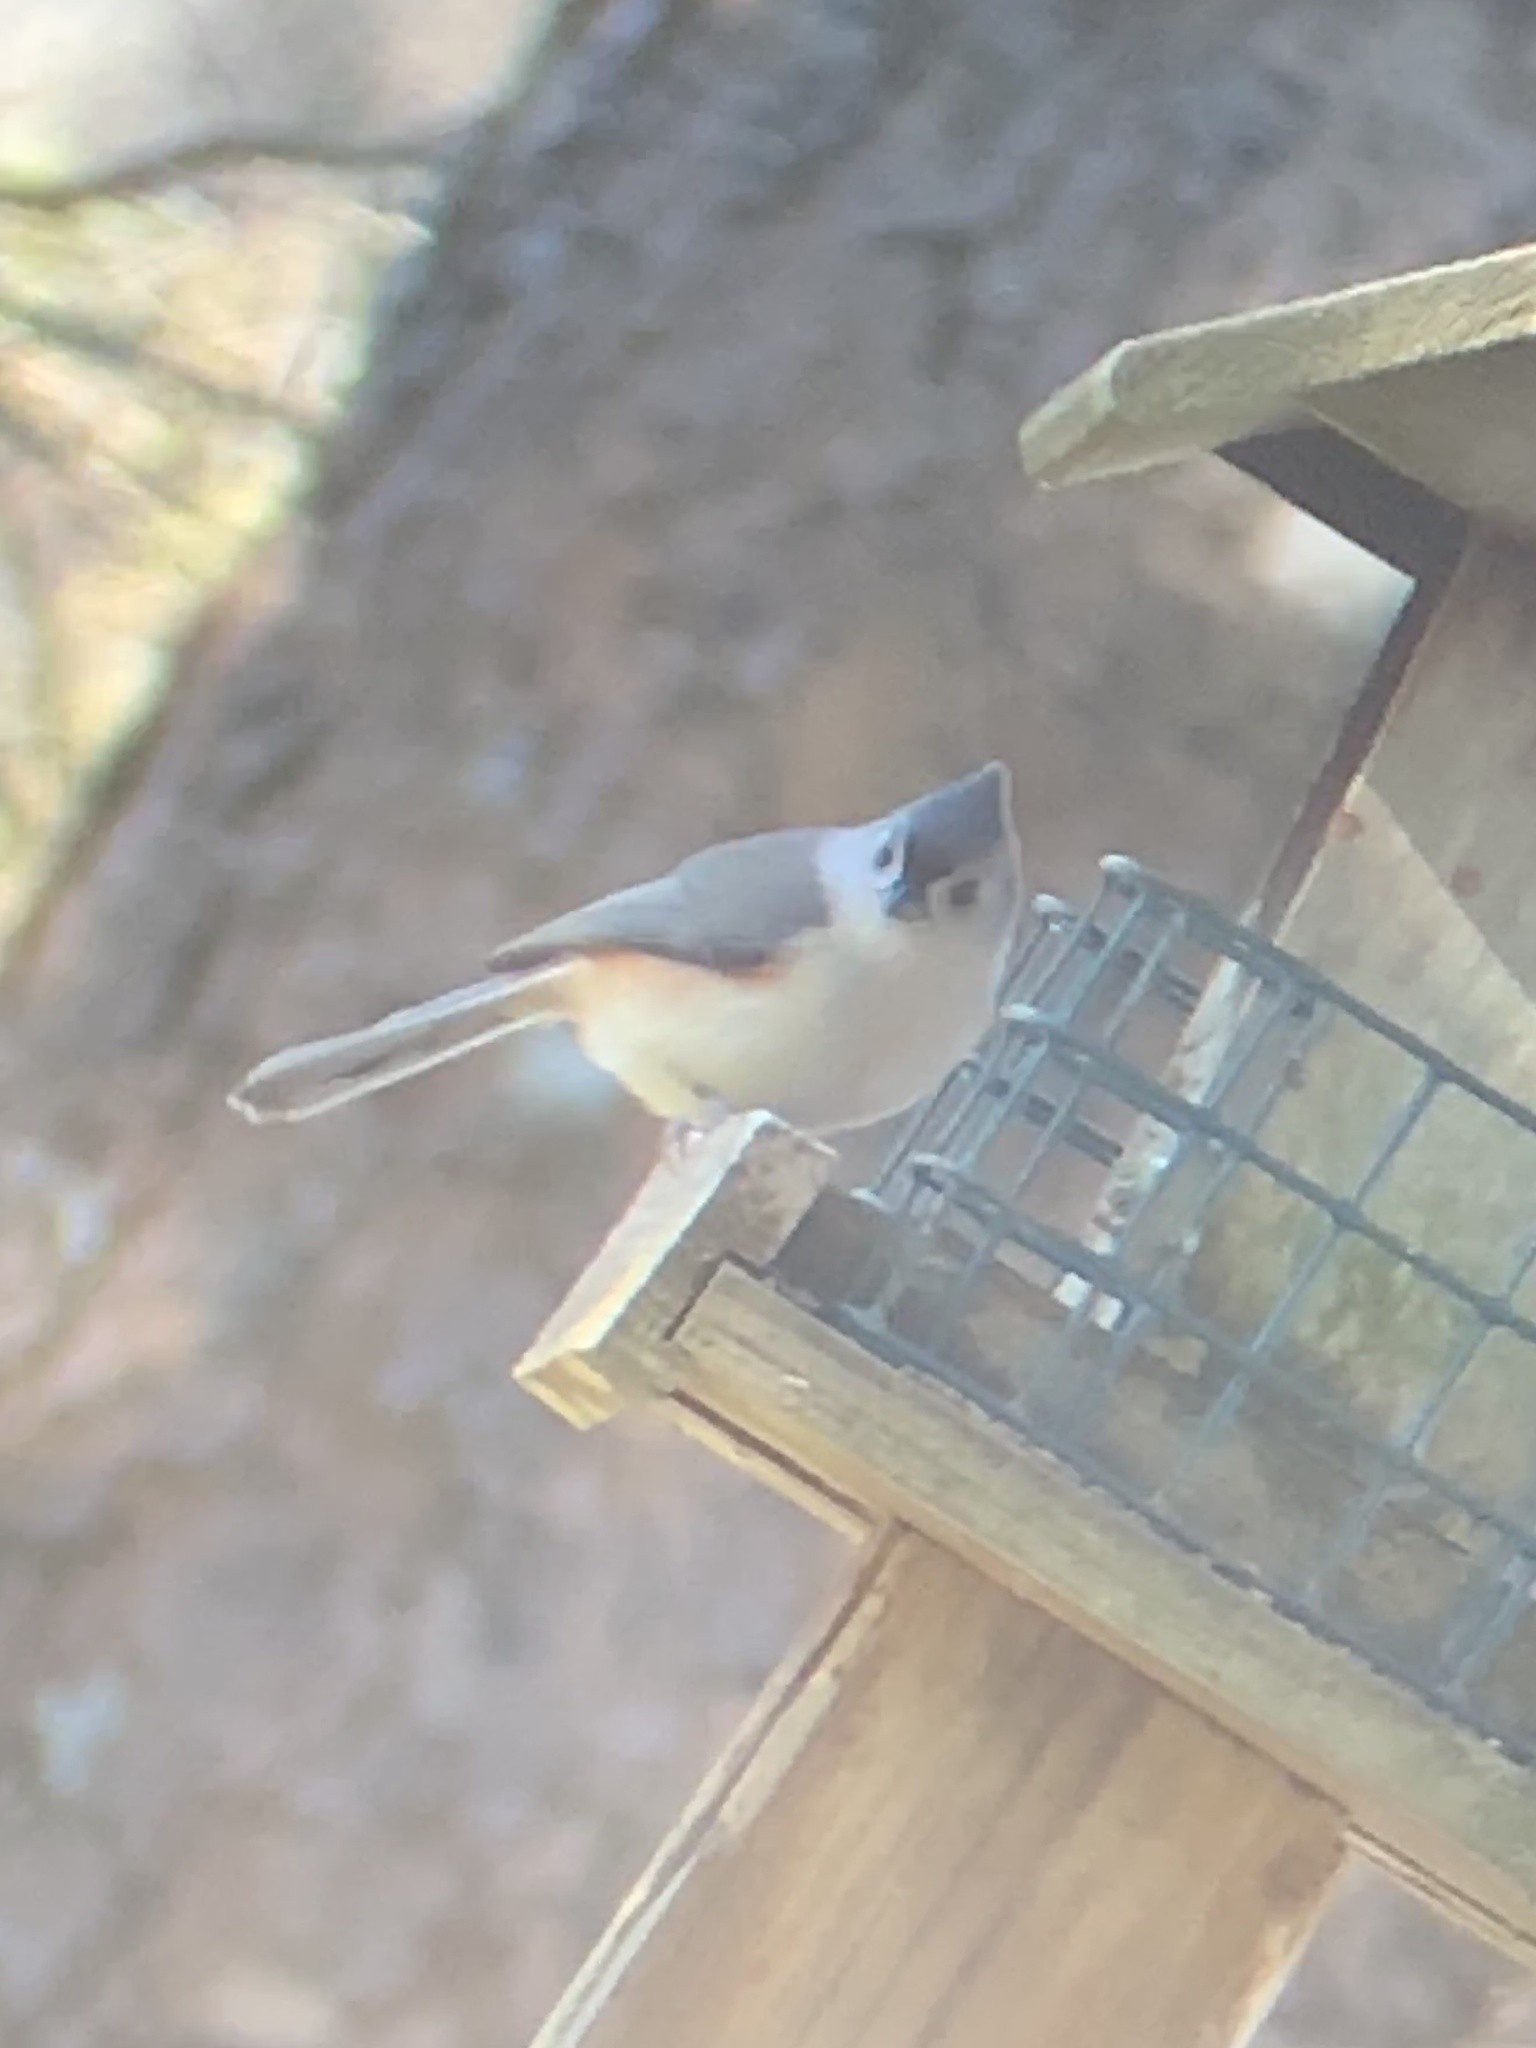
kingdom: Animalia
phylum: Chordata
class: Aves
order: Passeriformes
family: Paridae
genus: Baeolophus
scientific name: Baeolophus bicolor
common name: Tufted titmouse
